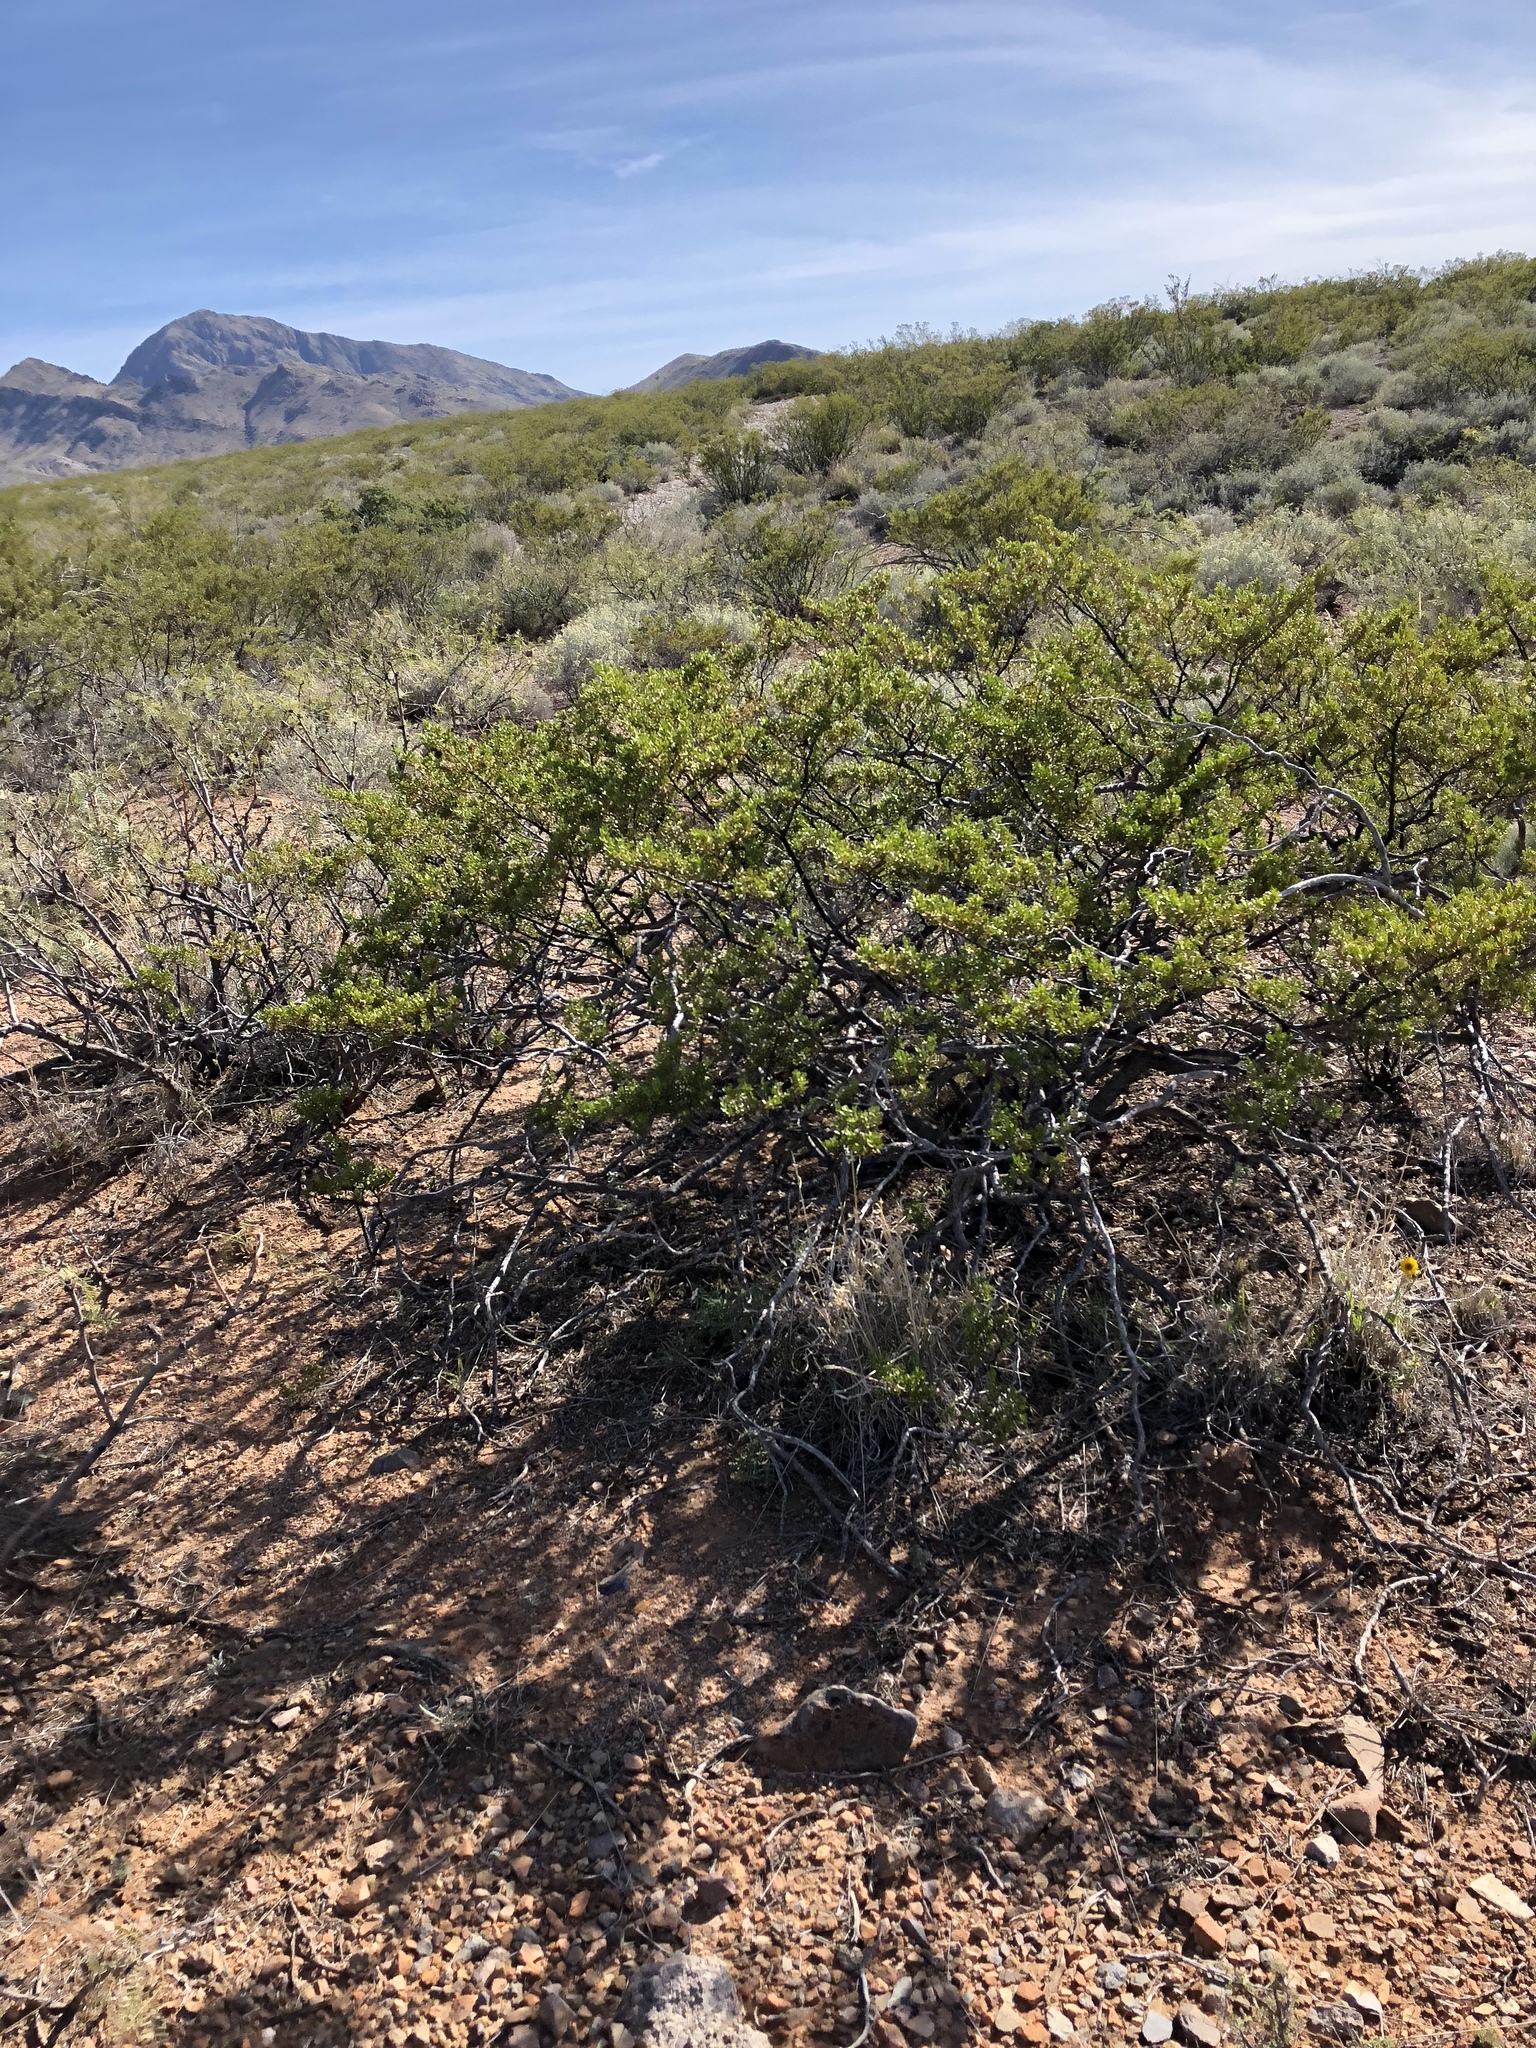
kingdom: Plantae
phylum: Tracheophyta
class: Magnoliopsida
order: Zygophyllales
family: Zygophyllaceae
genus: Larrea
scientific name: Larrea tridentata
